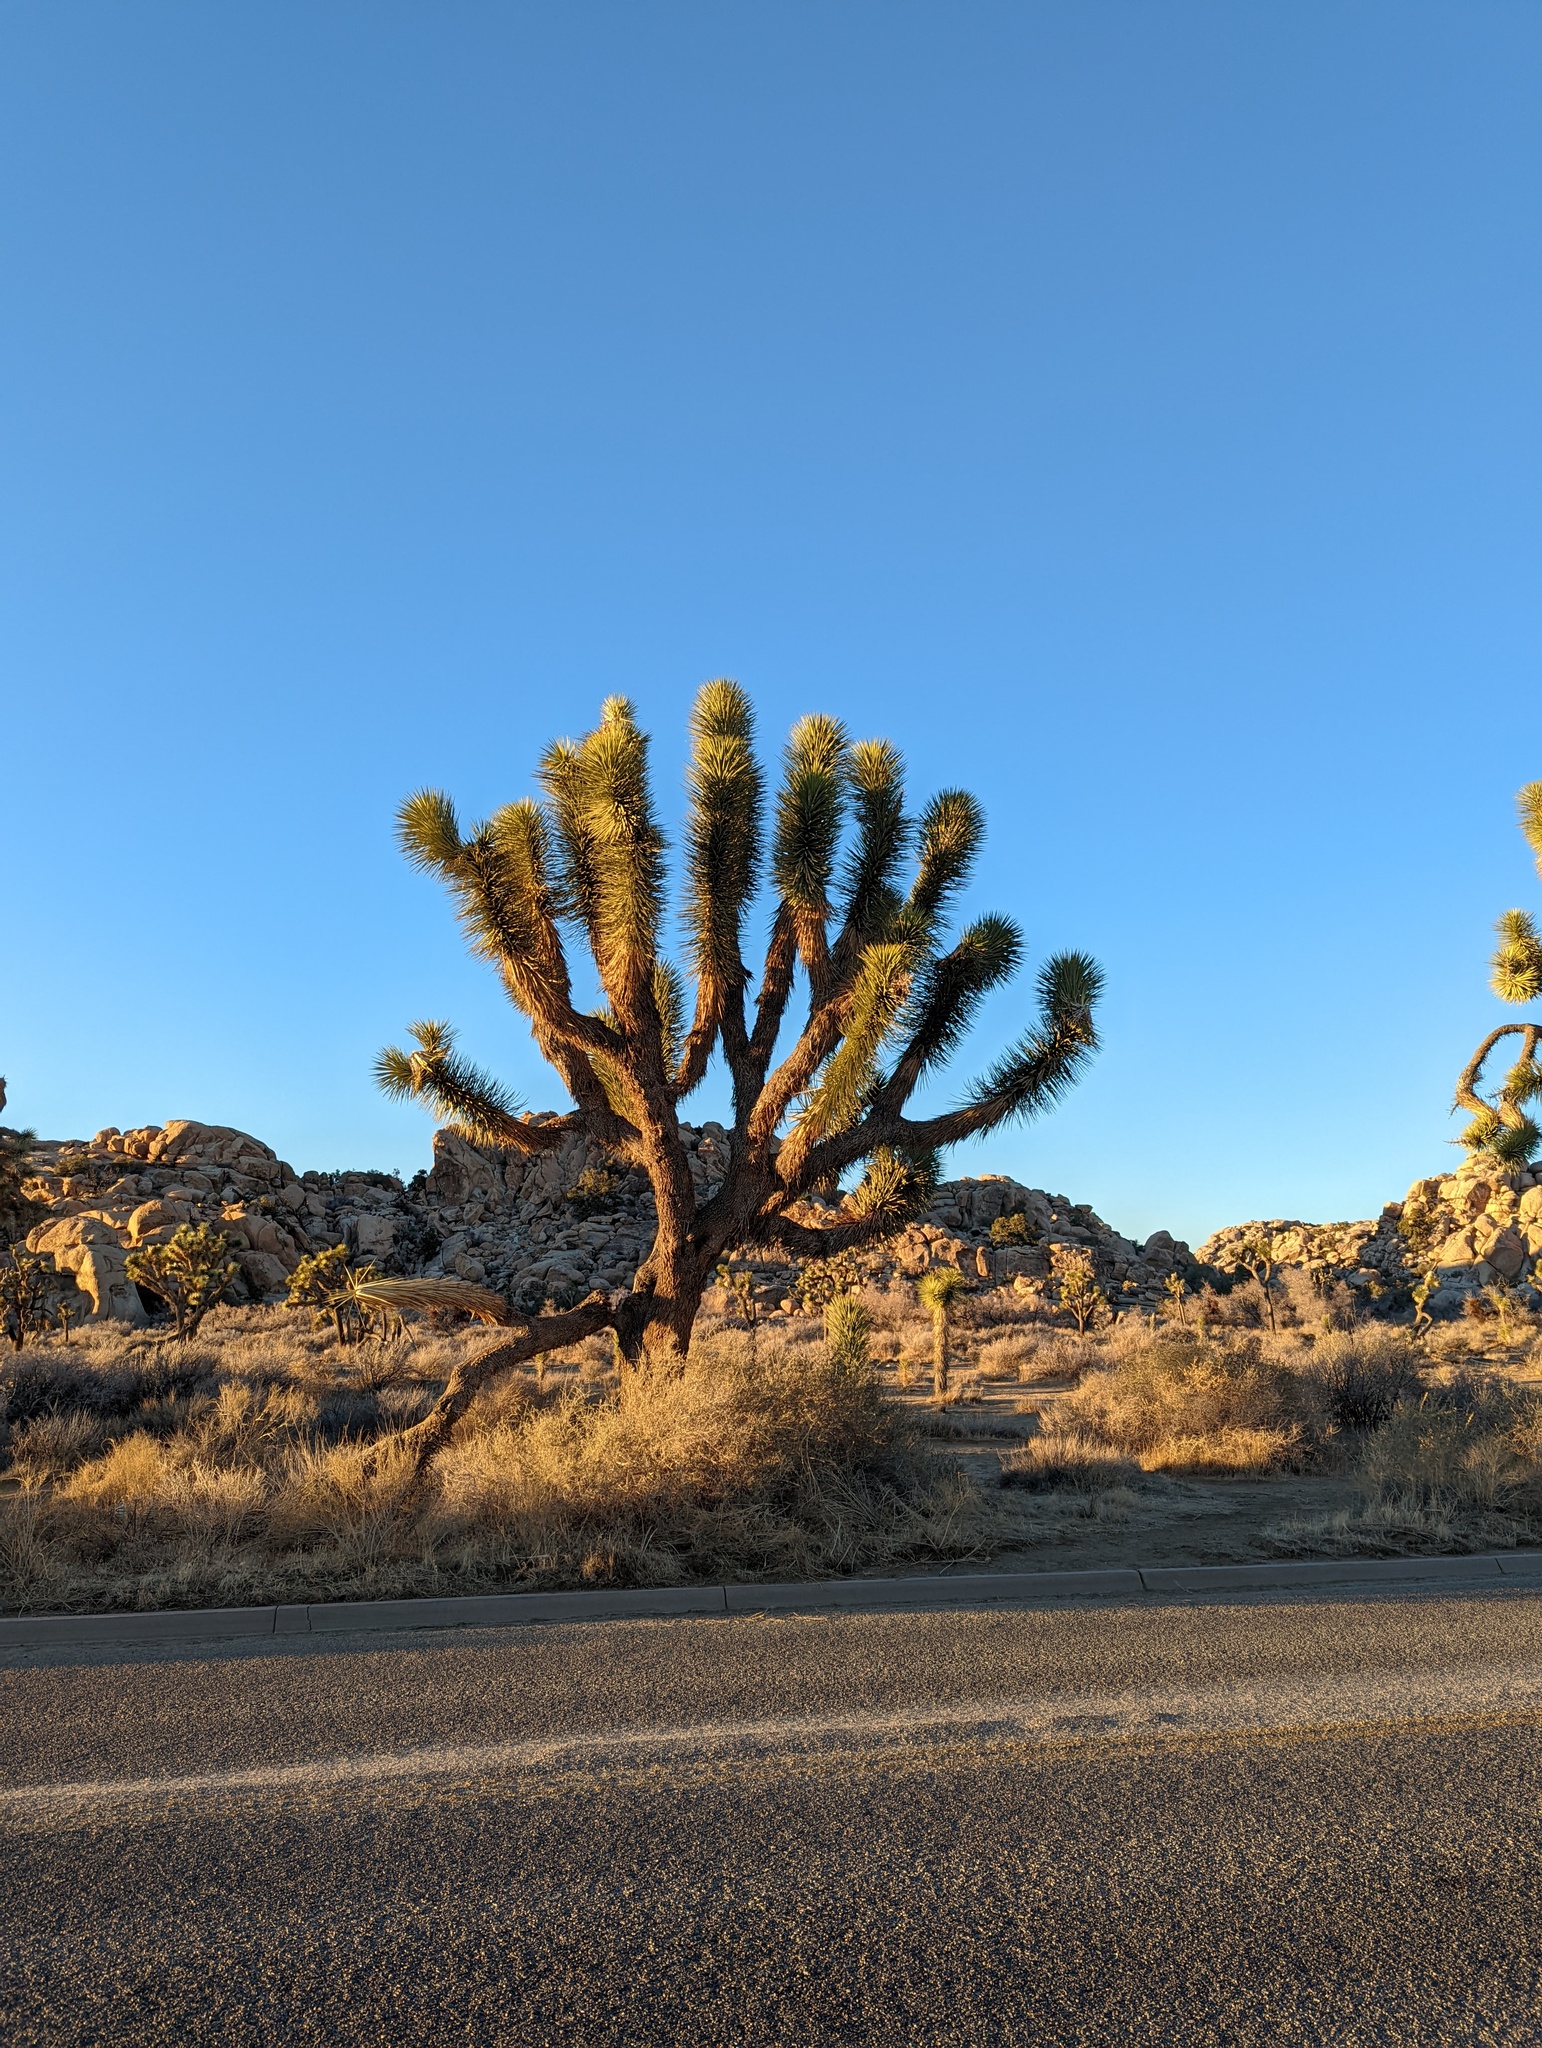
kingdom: Plantae
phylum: Tracheophyta
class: Liliopsida
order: Asparagales
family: Asparagaceae
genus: Yucca
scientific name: Yucca brevifolia
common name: Joshua tree
